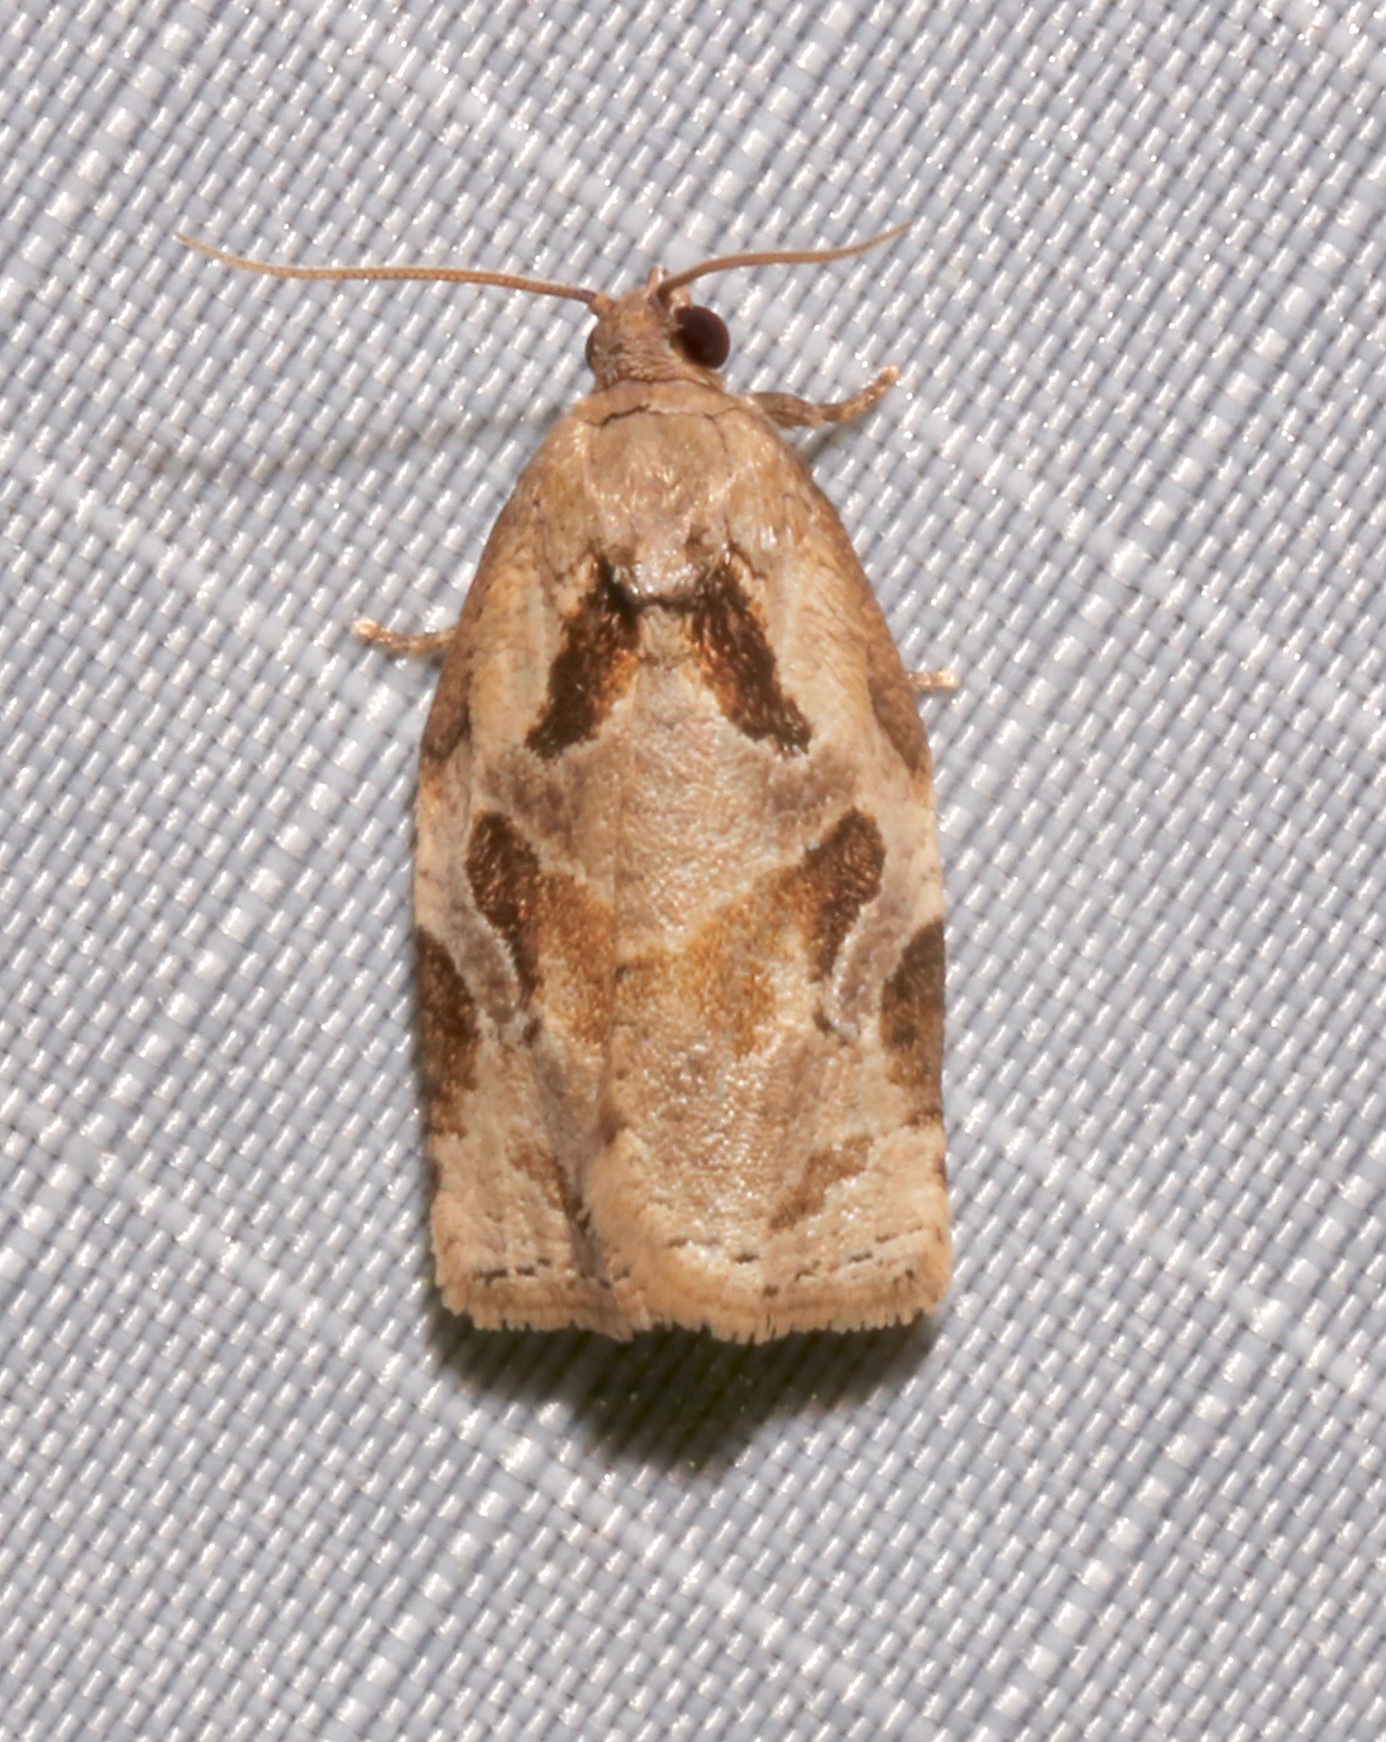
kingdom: Animalia
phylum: Arthropoda
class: Insecta
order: Lepidoptera
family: Tortricidae
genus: Archips
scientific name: Archips grisea
